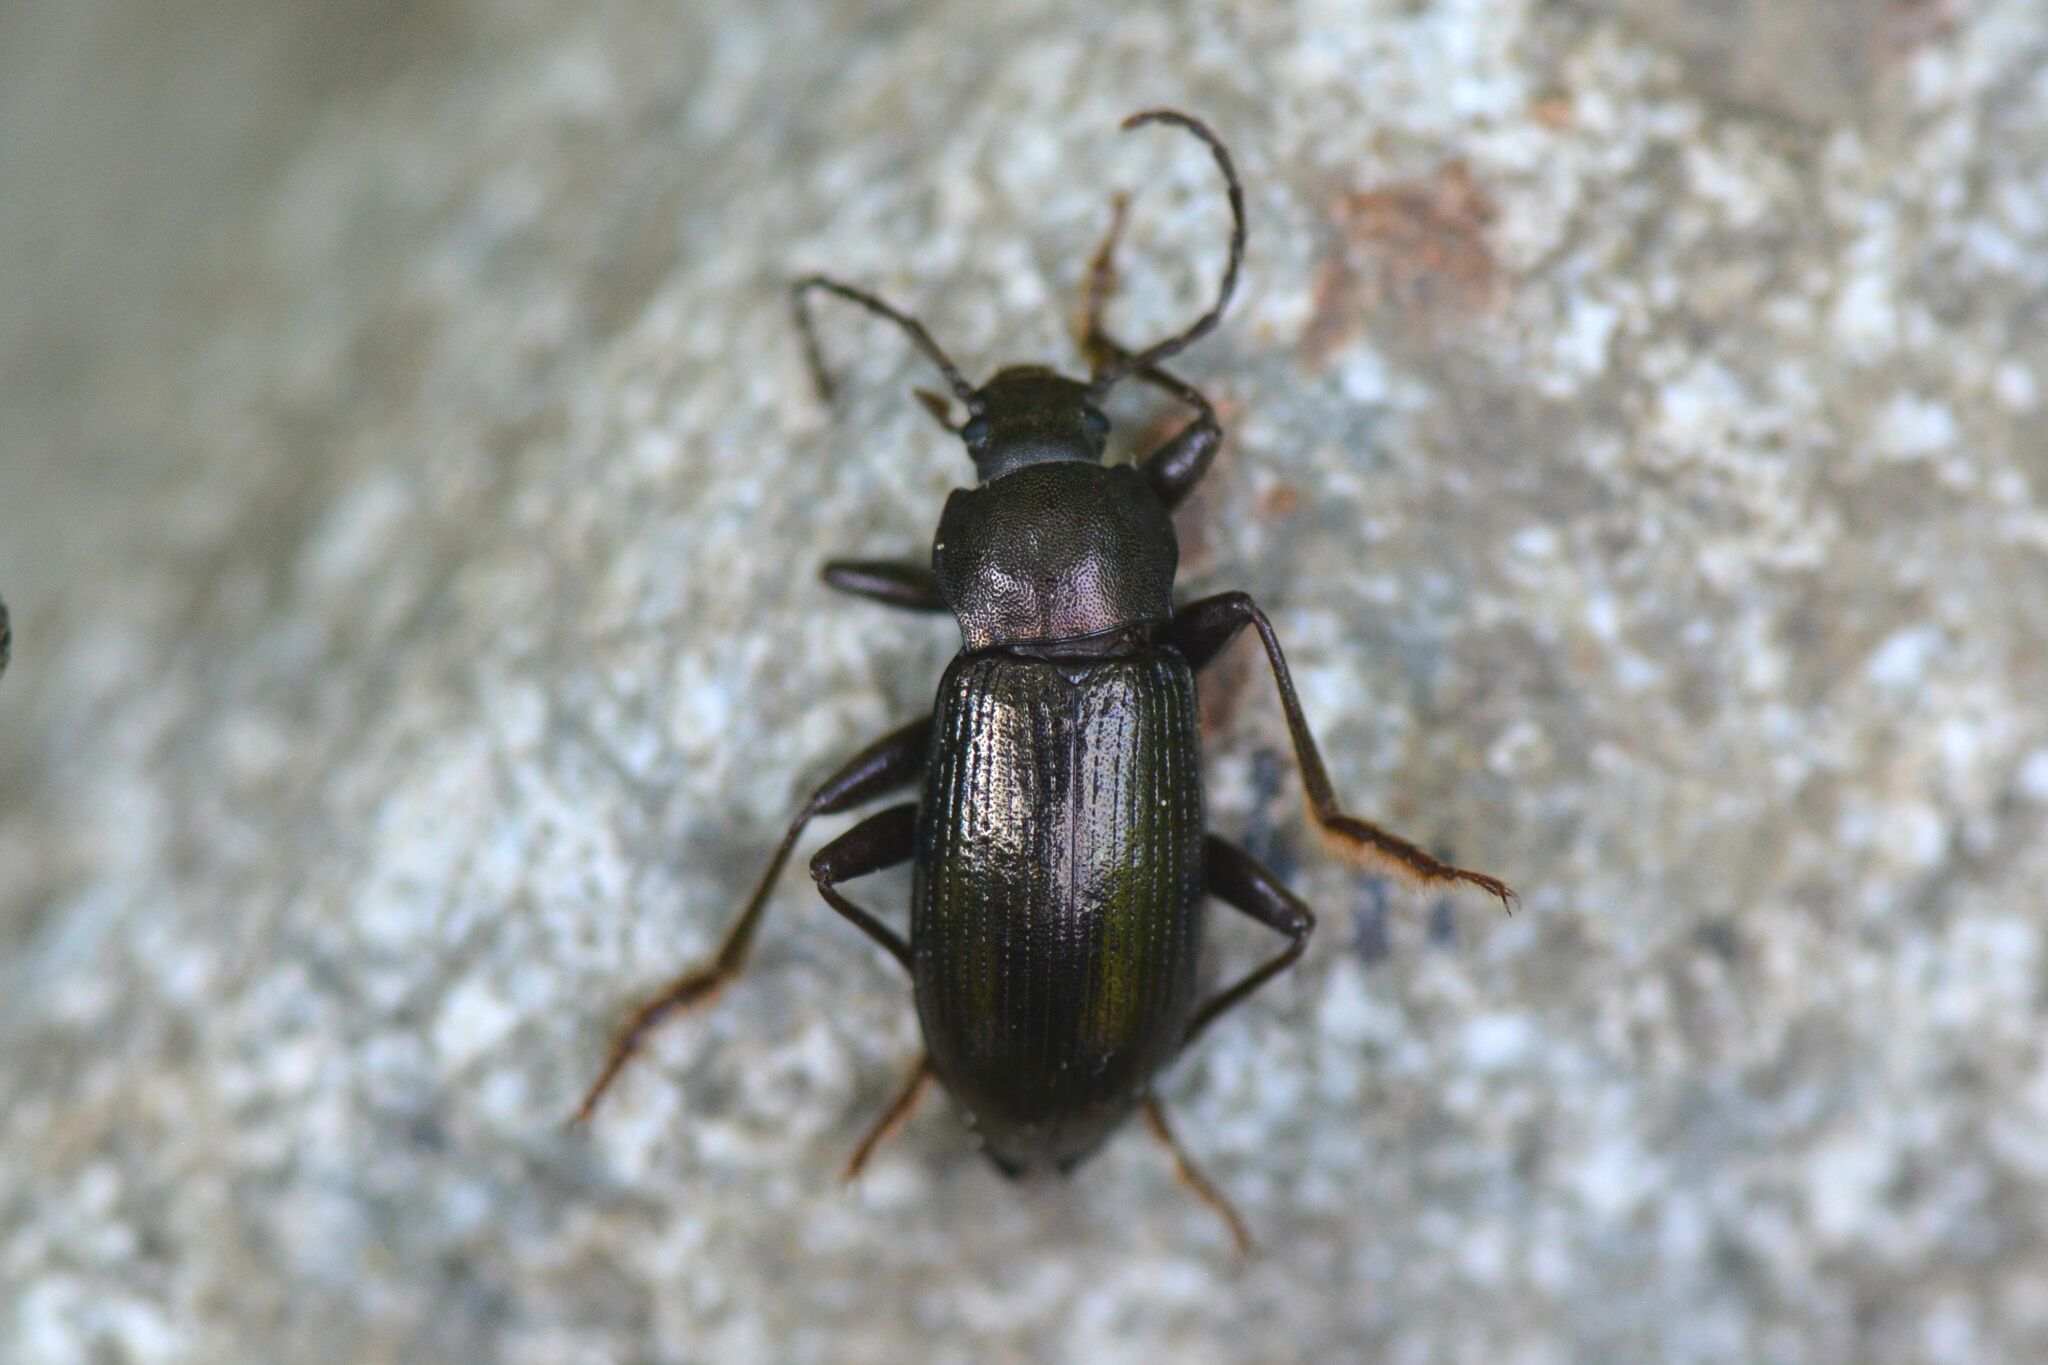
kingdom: Animalia
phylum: Arthropoda
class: Insecta
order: Coleoptera
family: Tenebrionidae
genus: Stenomax
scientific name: Stenomax aeneus
